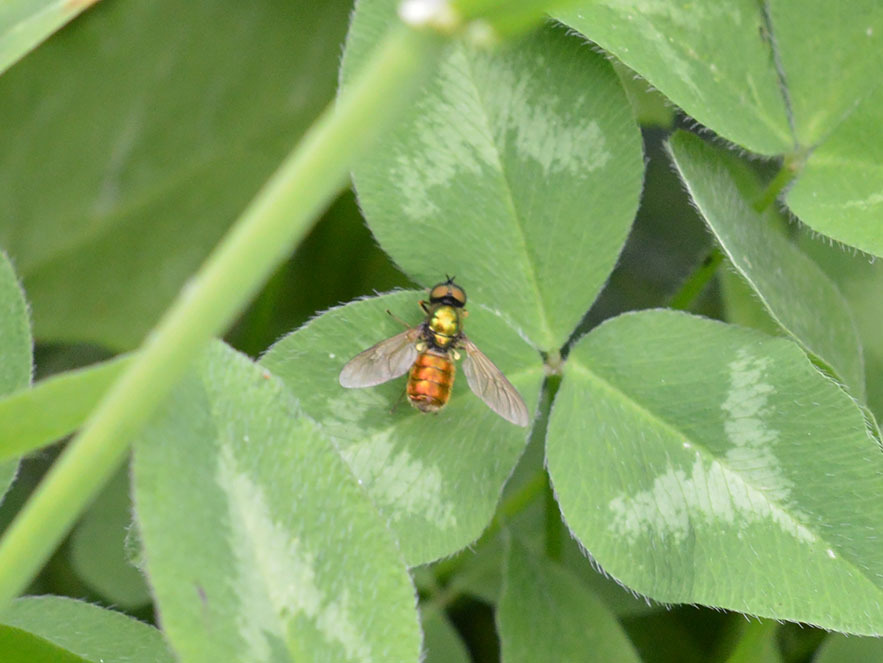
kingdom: Animalia
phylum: Arthropoda
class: Insecta
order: Diptera
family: Stratiomyidae
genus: Chloromyia
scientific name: Chloromyia formosa
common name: Soldier fly
